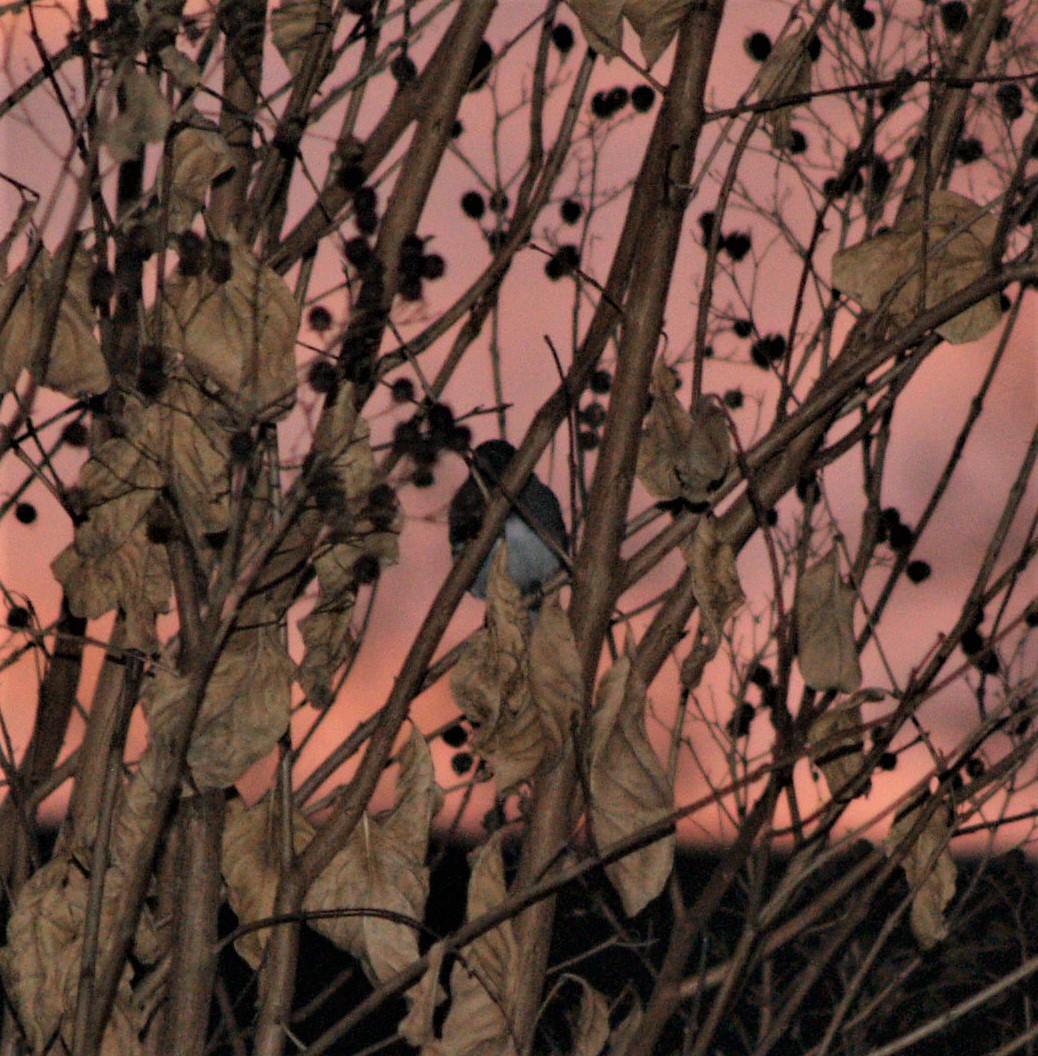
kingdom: Animalia
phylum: Chordata
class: Aves
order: Passeriformes
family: Passerellidae
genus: Junco
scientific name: Junco hyemalis
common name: Dark-eyed junco
